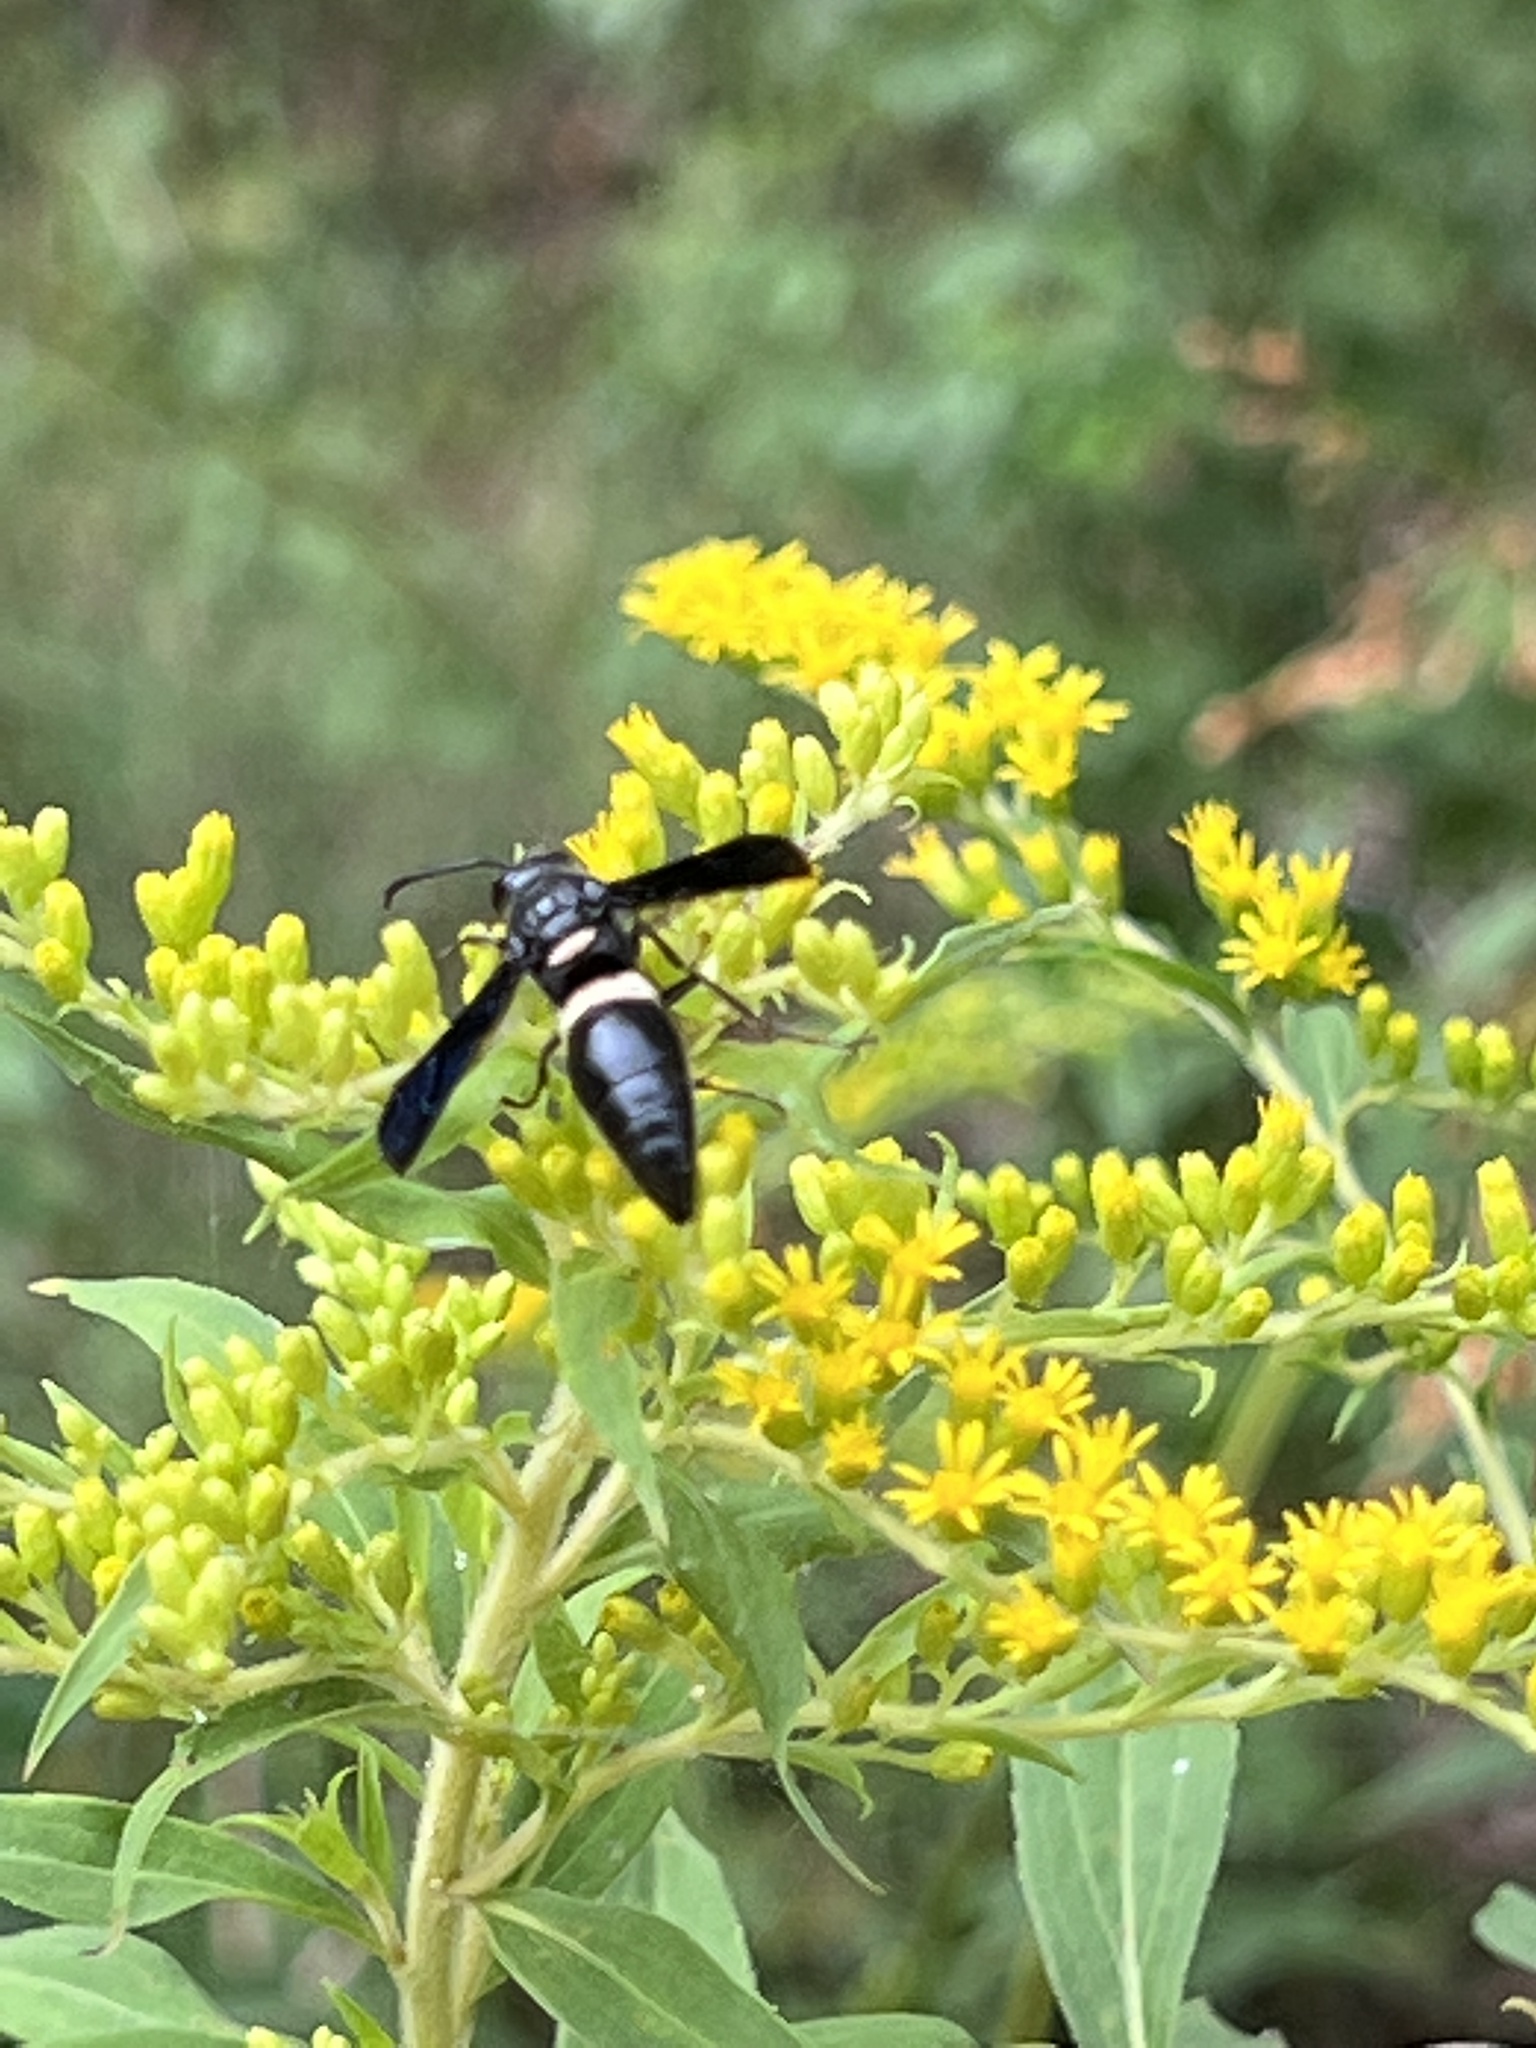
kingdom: Animalia
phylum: Arthropoda
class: Insecta
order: Hymenoptera
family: Eumenidae
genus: Monobia
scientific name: Monobia quadridens
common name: Four-toothed mason wasp
